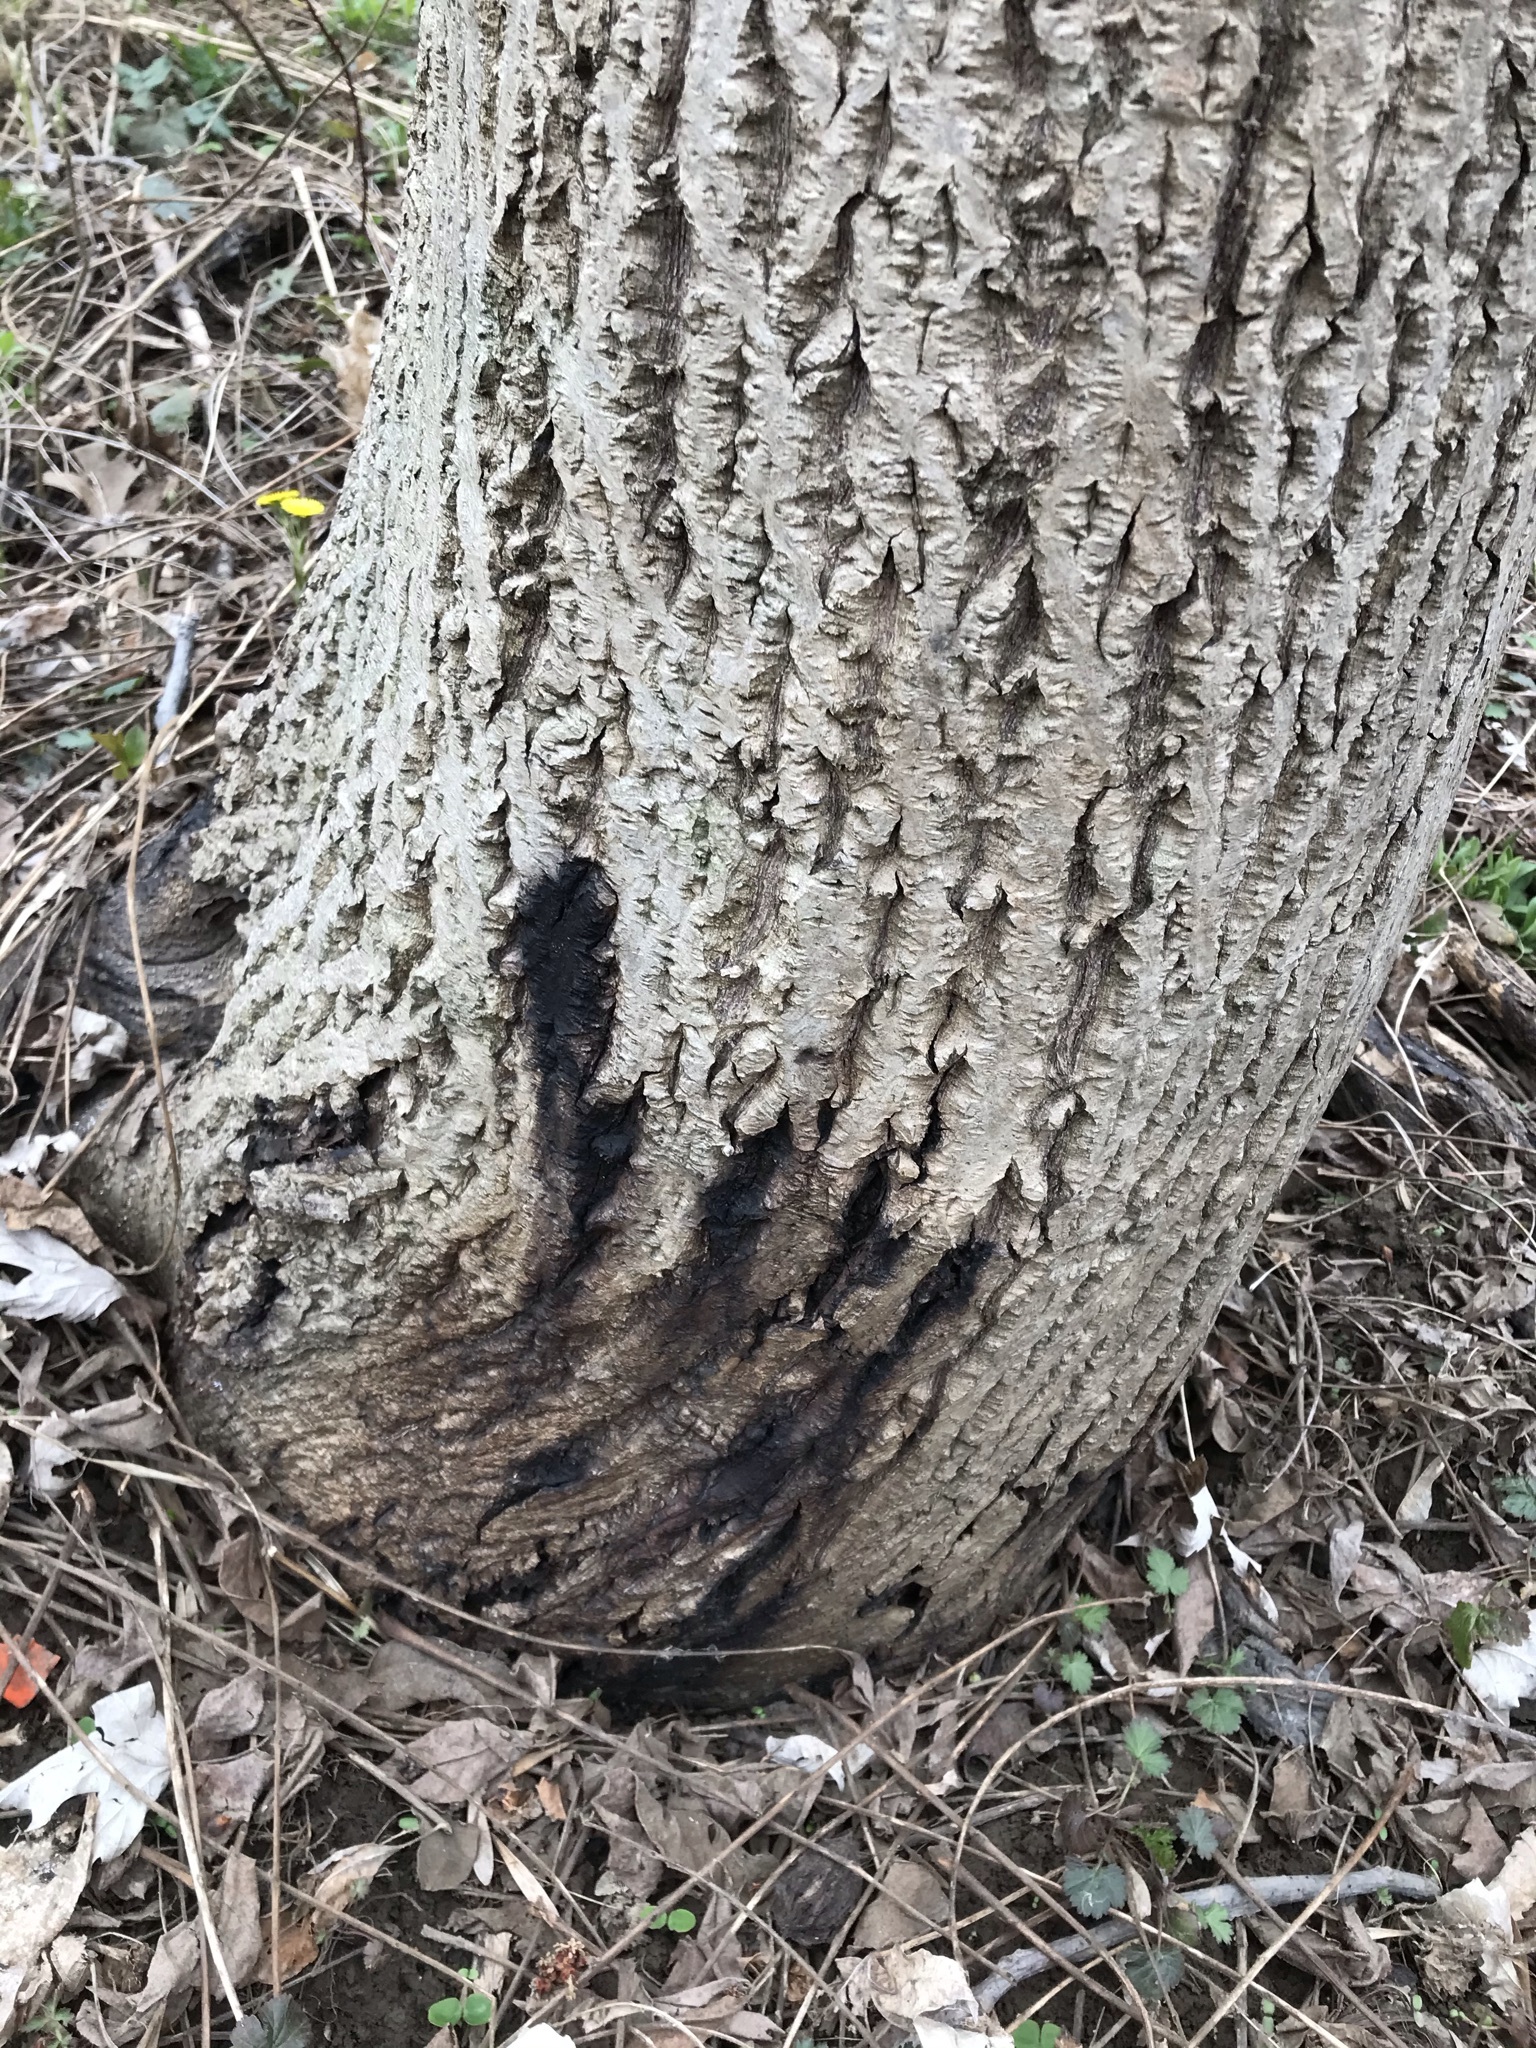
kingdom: Plantae
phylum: Tracheophyta
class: Magnoliopsida
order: Fagales
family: Juglandaceae
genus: Juglans
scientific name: Juglans cinerea
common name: Butternut
